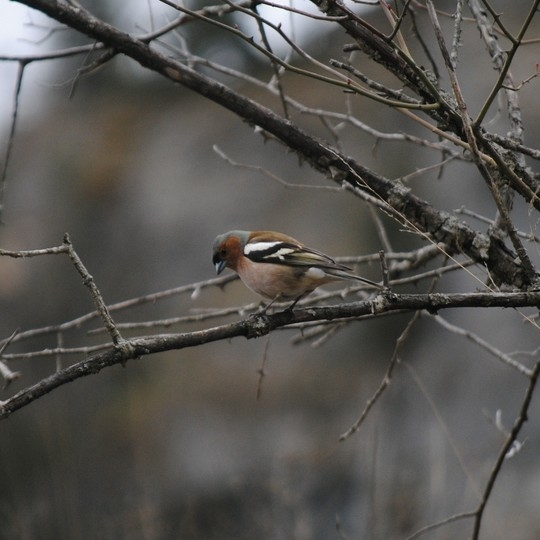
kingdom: Animalia
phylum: Chordata
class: Aves
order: Passeriformes
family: Fringillidae
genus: Fringilla
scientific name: Fringilla coelebs
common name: Common chaffinch
